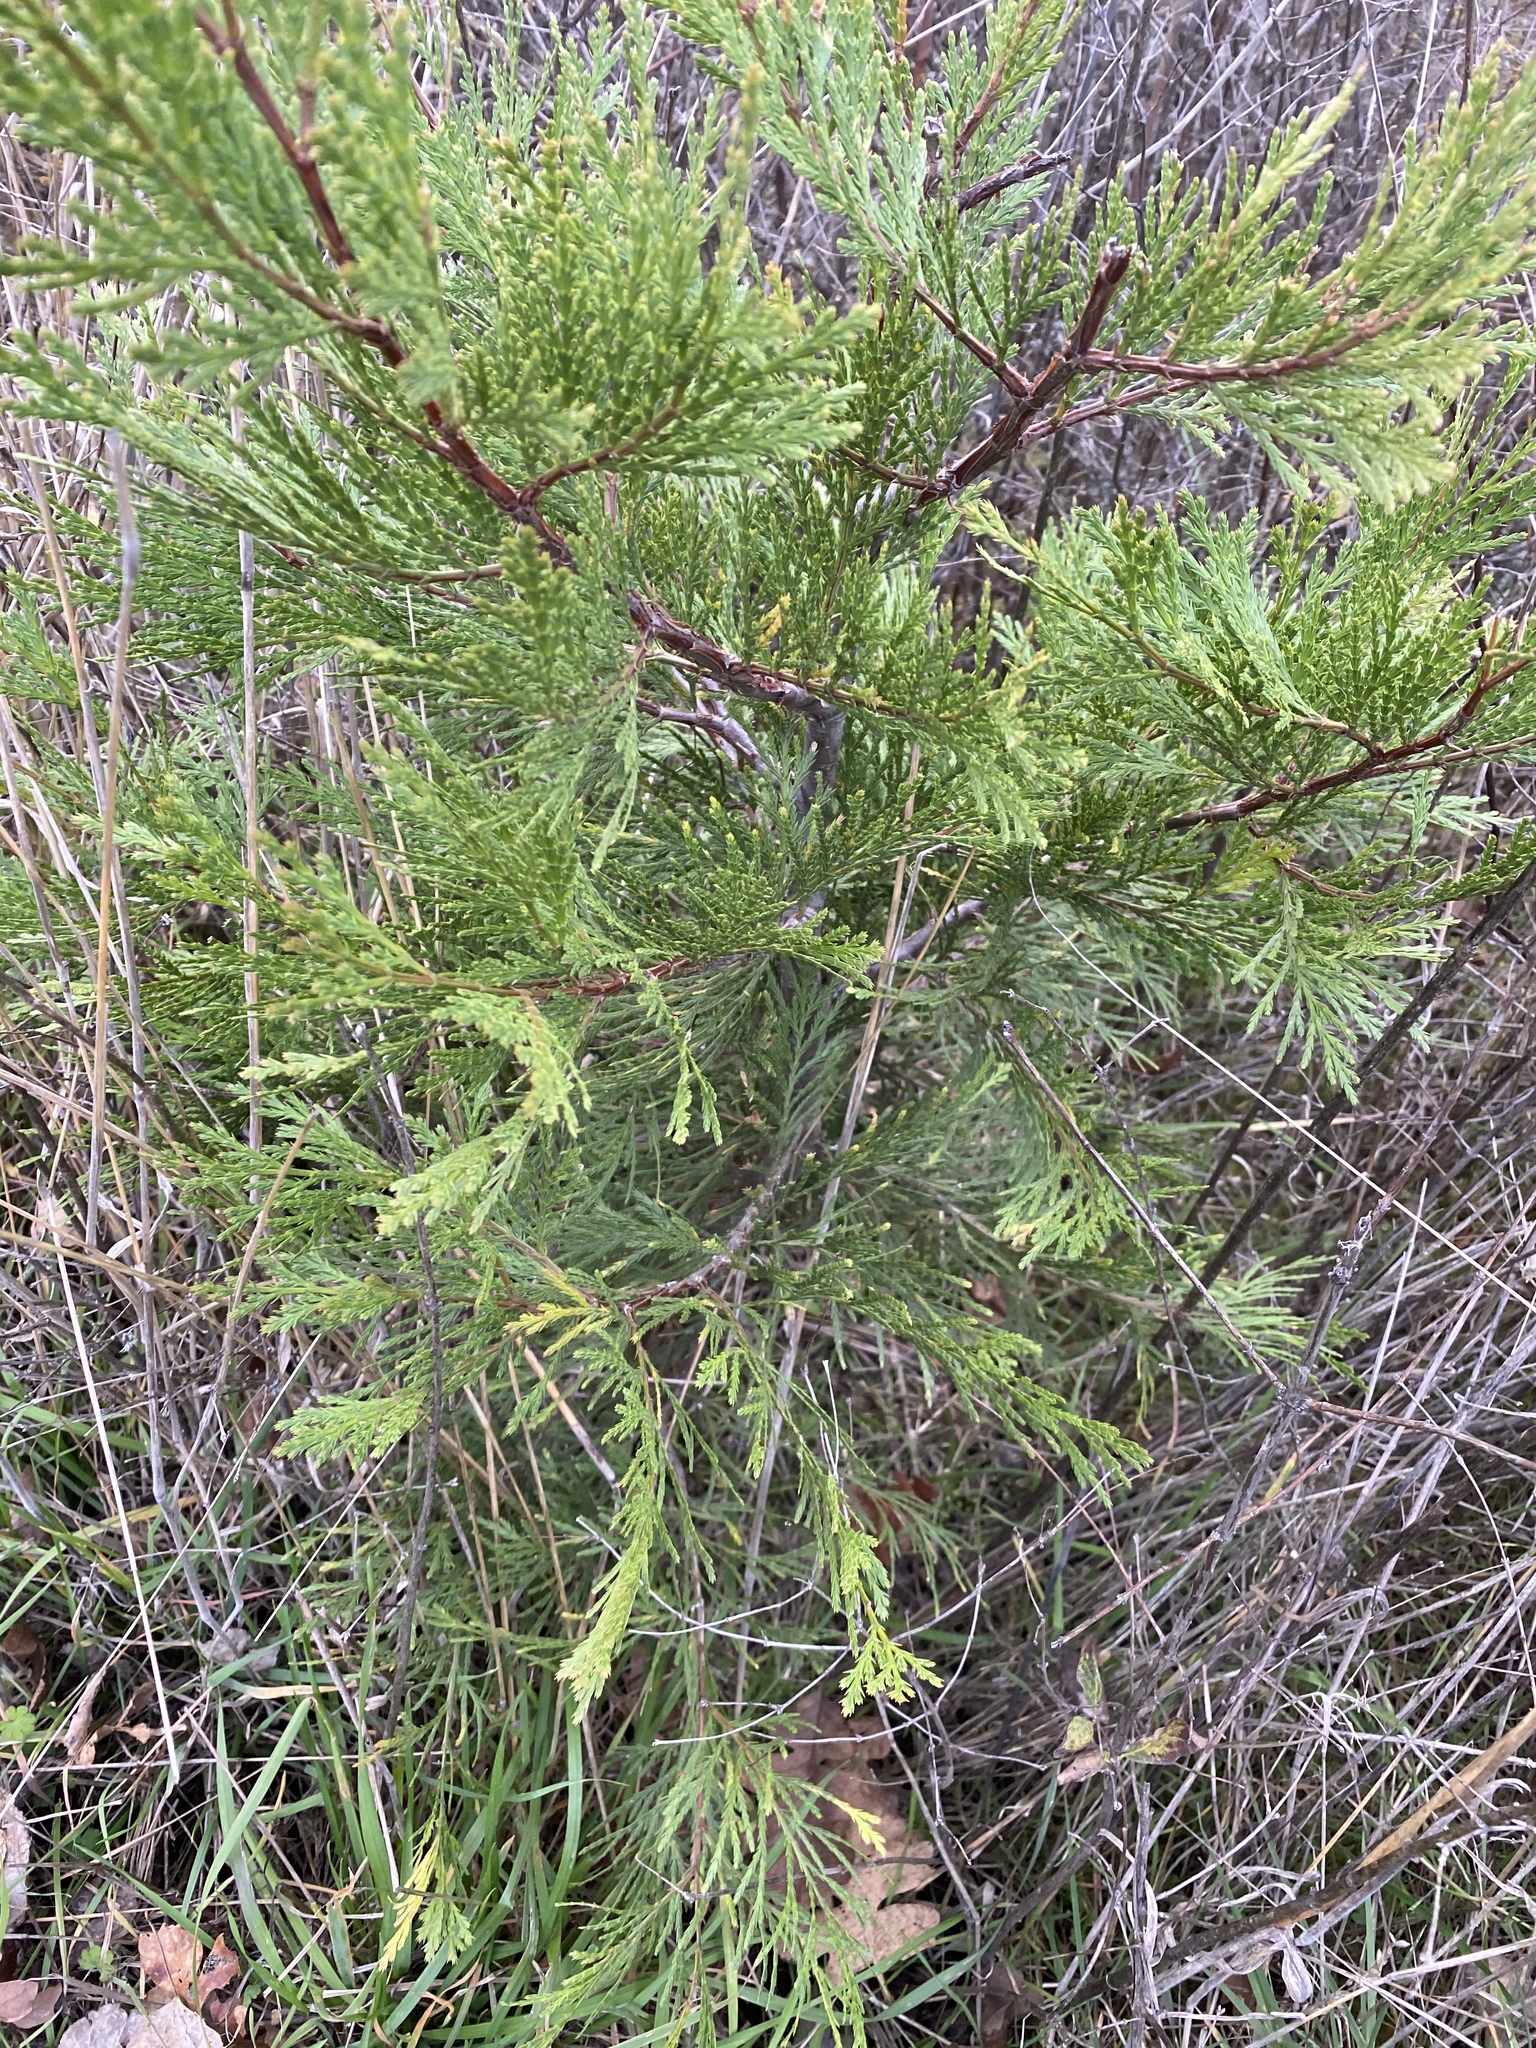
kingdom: Plantae
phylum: Tracheophyta
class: Pinopsida
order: Pinales
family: Cupressaceae
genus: Calocedrus
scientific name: Calocedrus decurrens
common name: Californian incense-cedar
